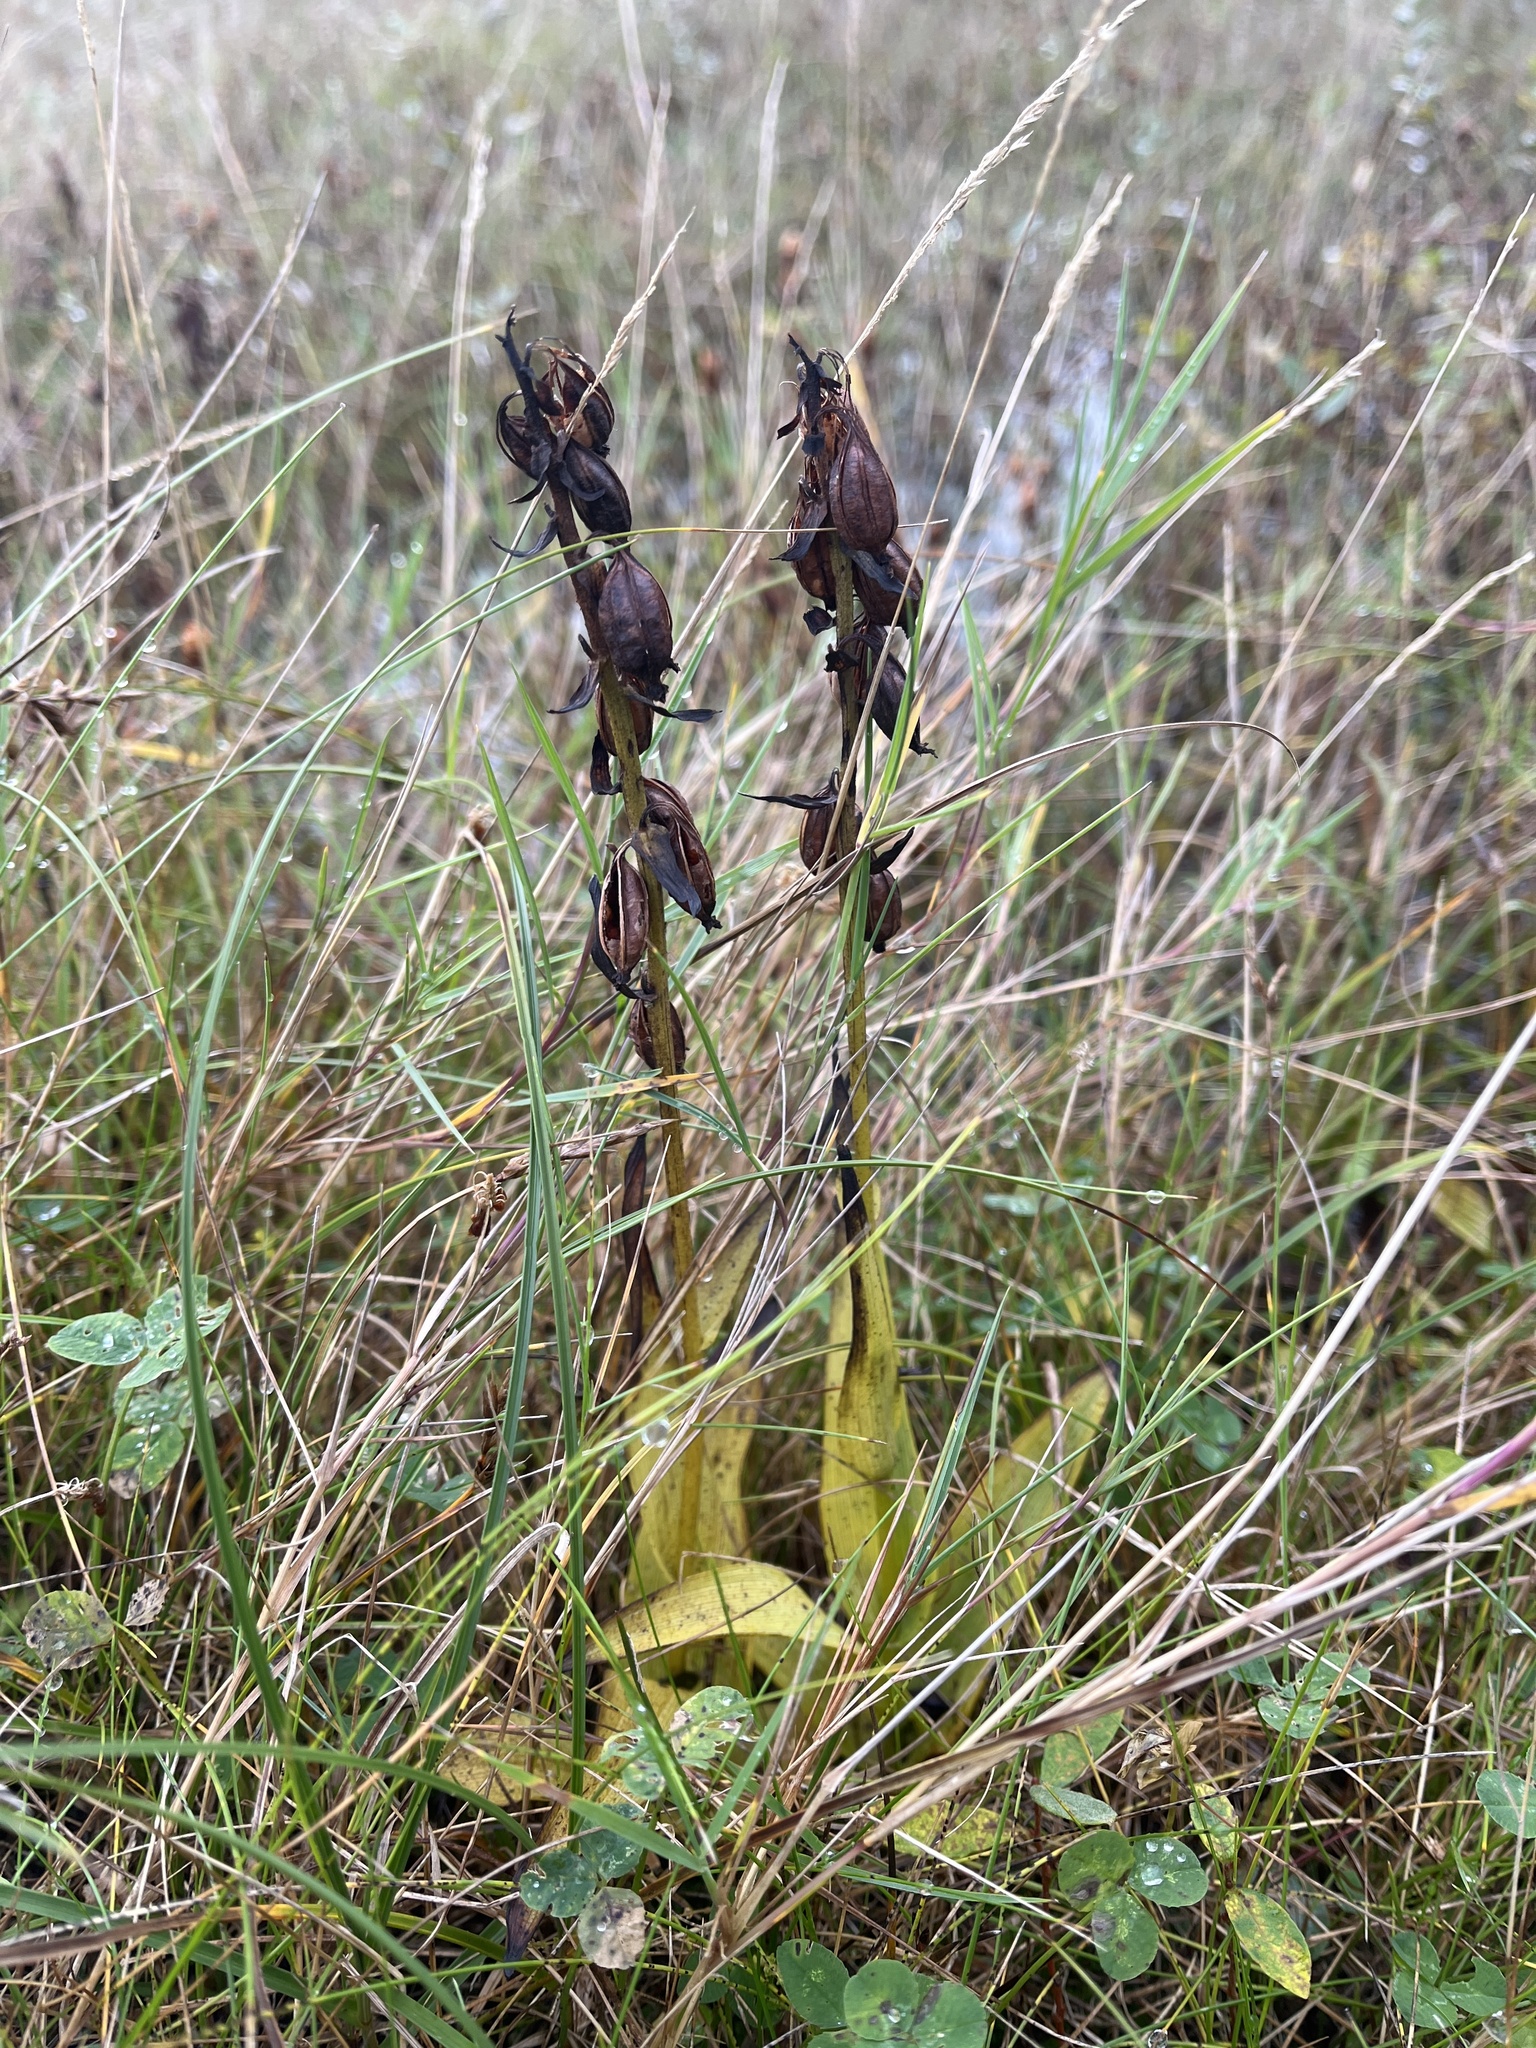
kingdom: Plantae
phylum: Tracheophyta
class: Liliopsida
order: Asparagales
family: Orchidaceae
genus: Epipactis
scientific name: Epipactis palustris
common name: Marsh helleborine
